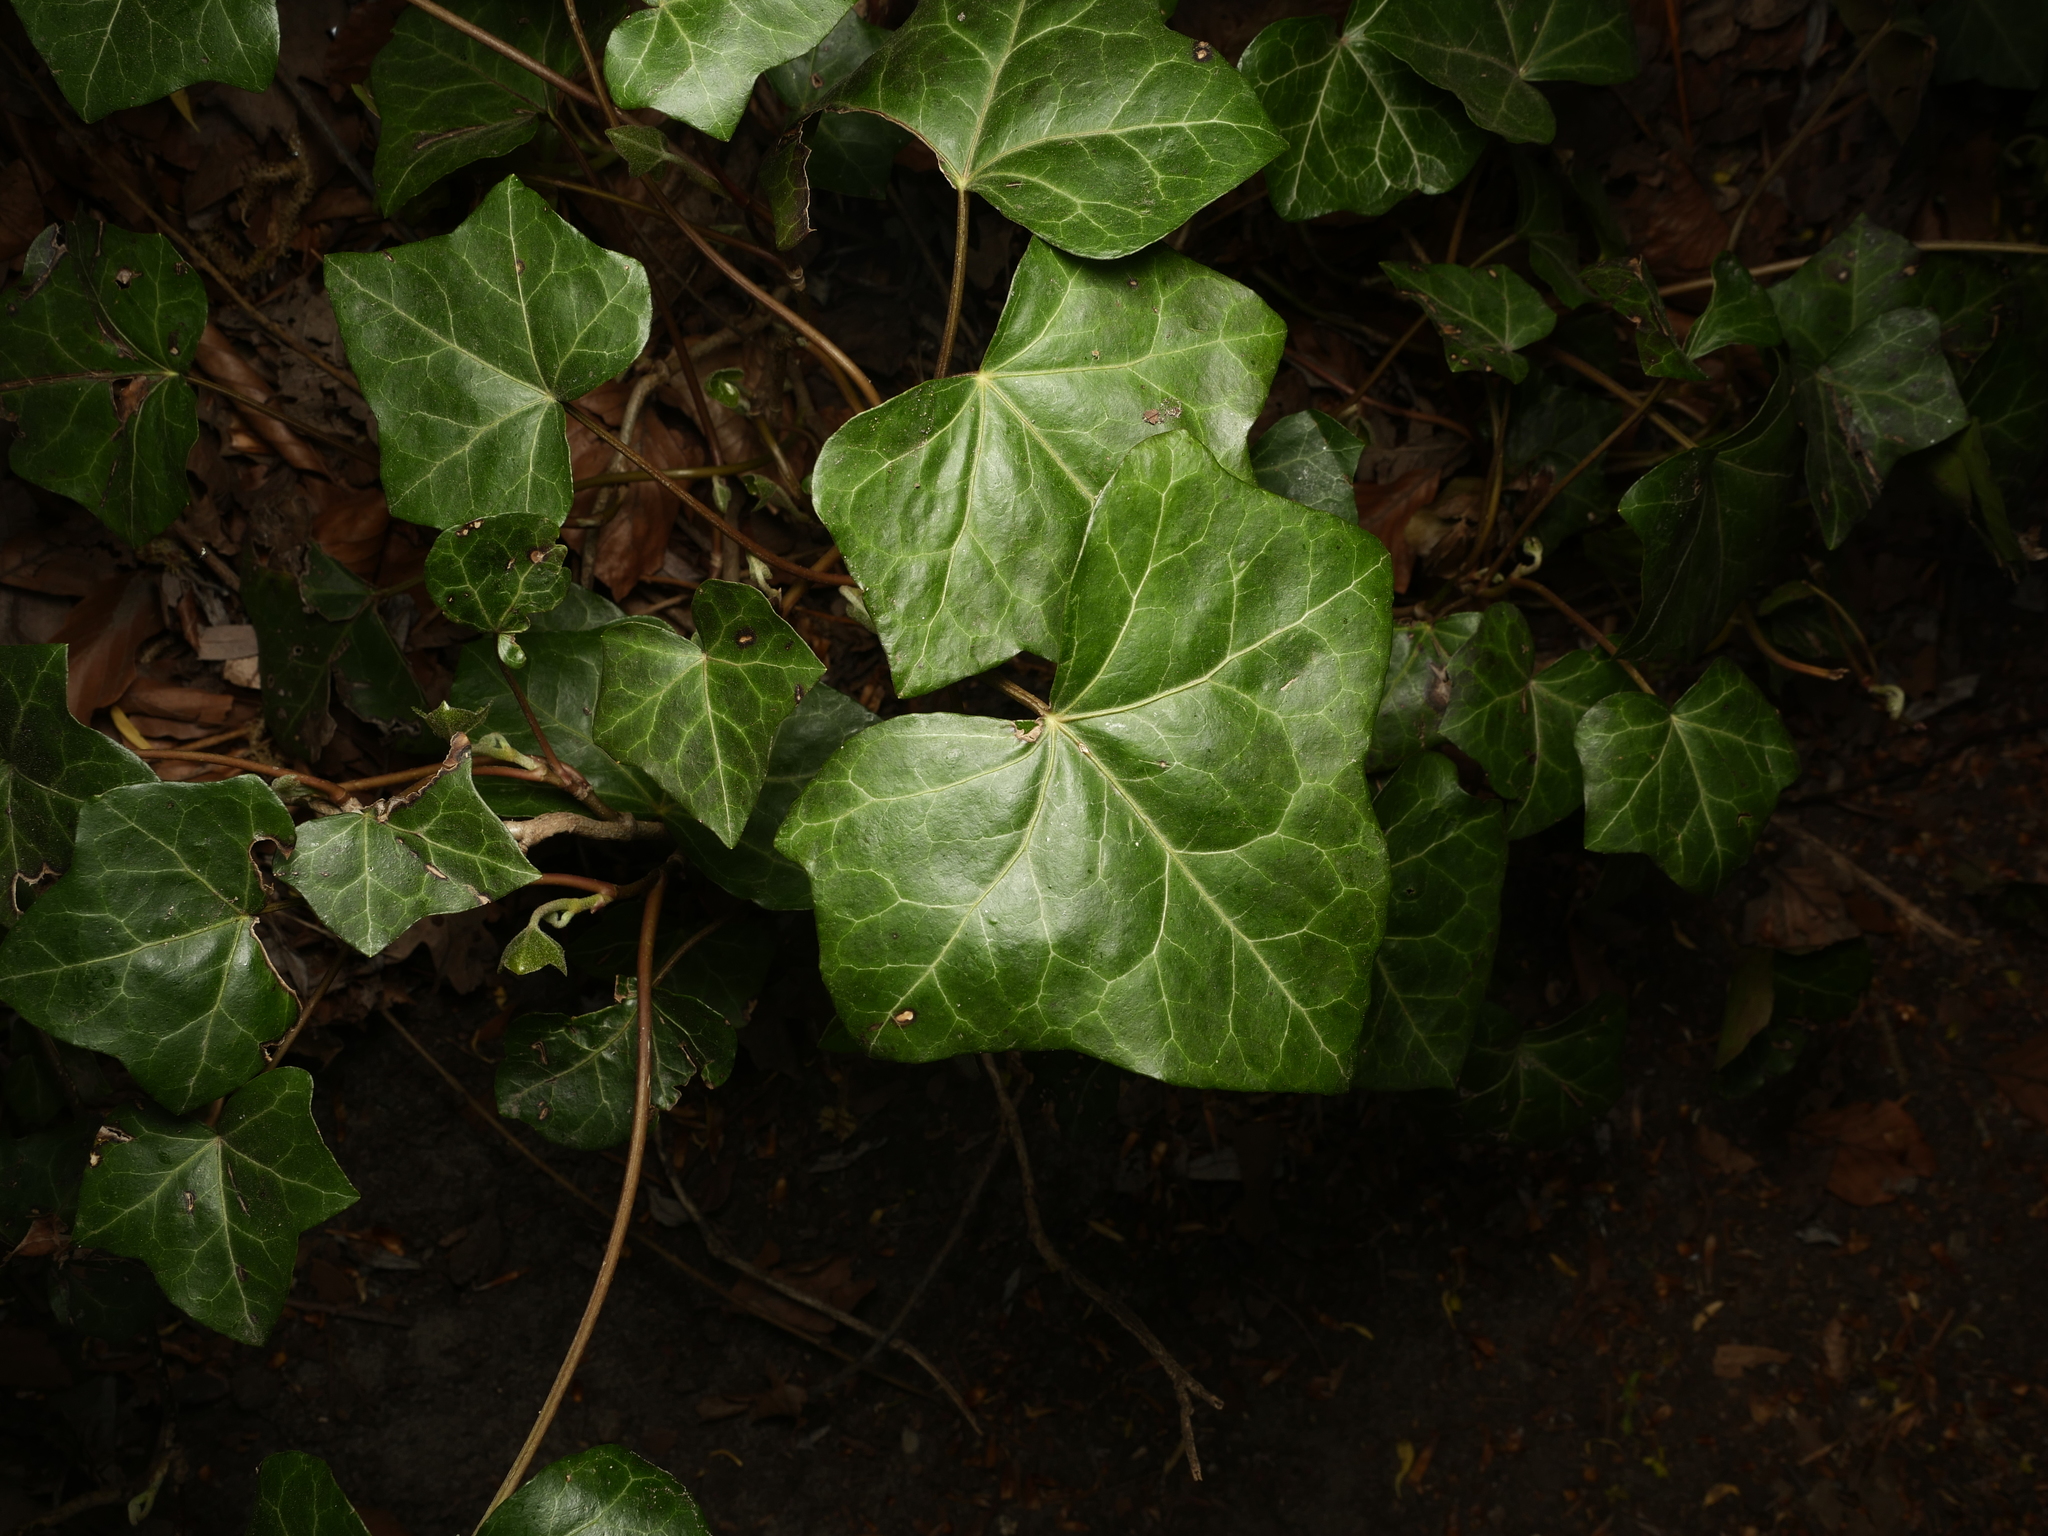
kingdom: Plantae
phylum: Tracheophyta
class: Magnoliopsida
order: Apiales
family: Araliaceae
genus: Hedera
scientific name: Hedera helix
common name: Ivy
